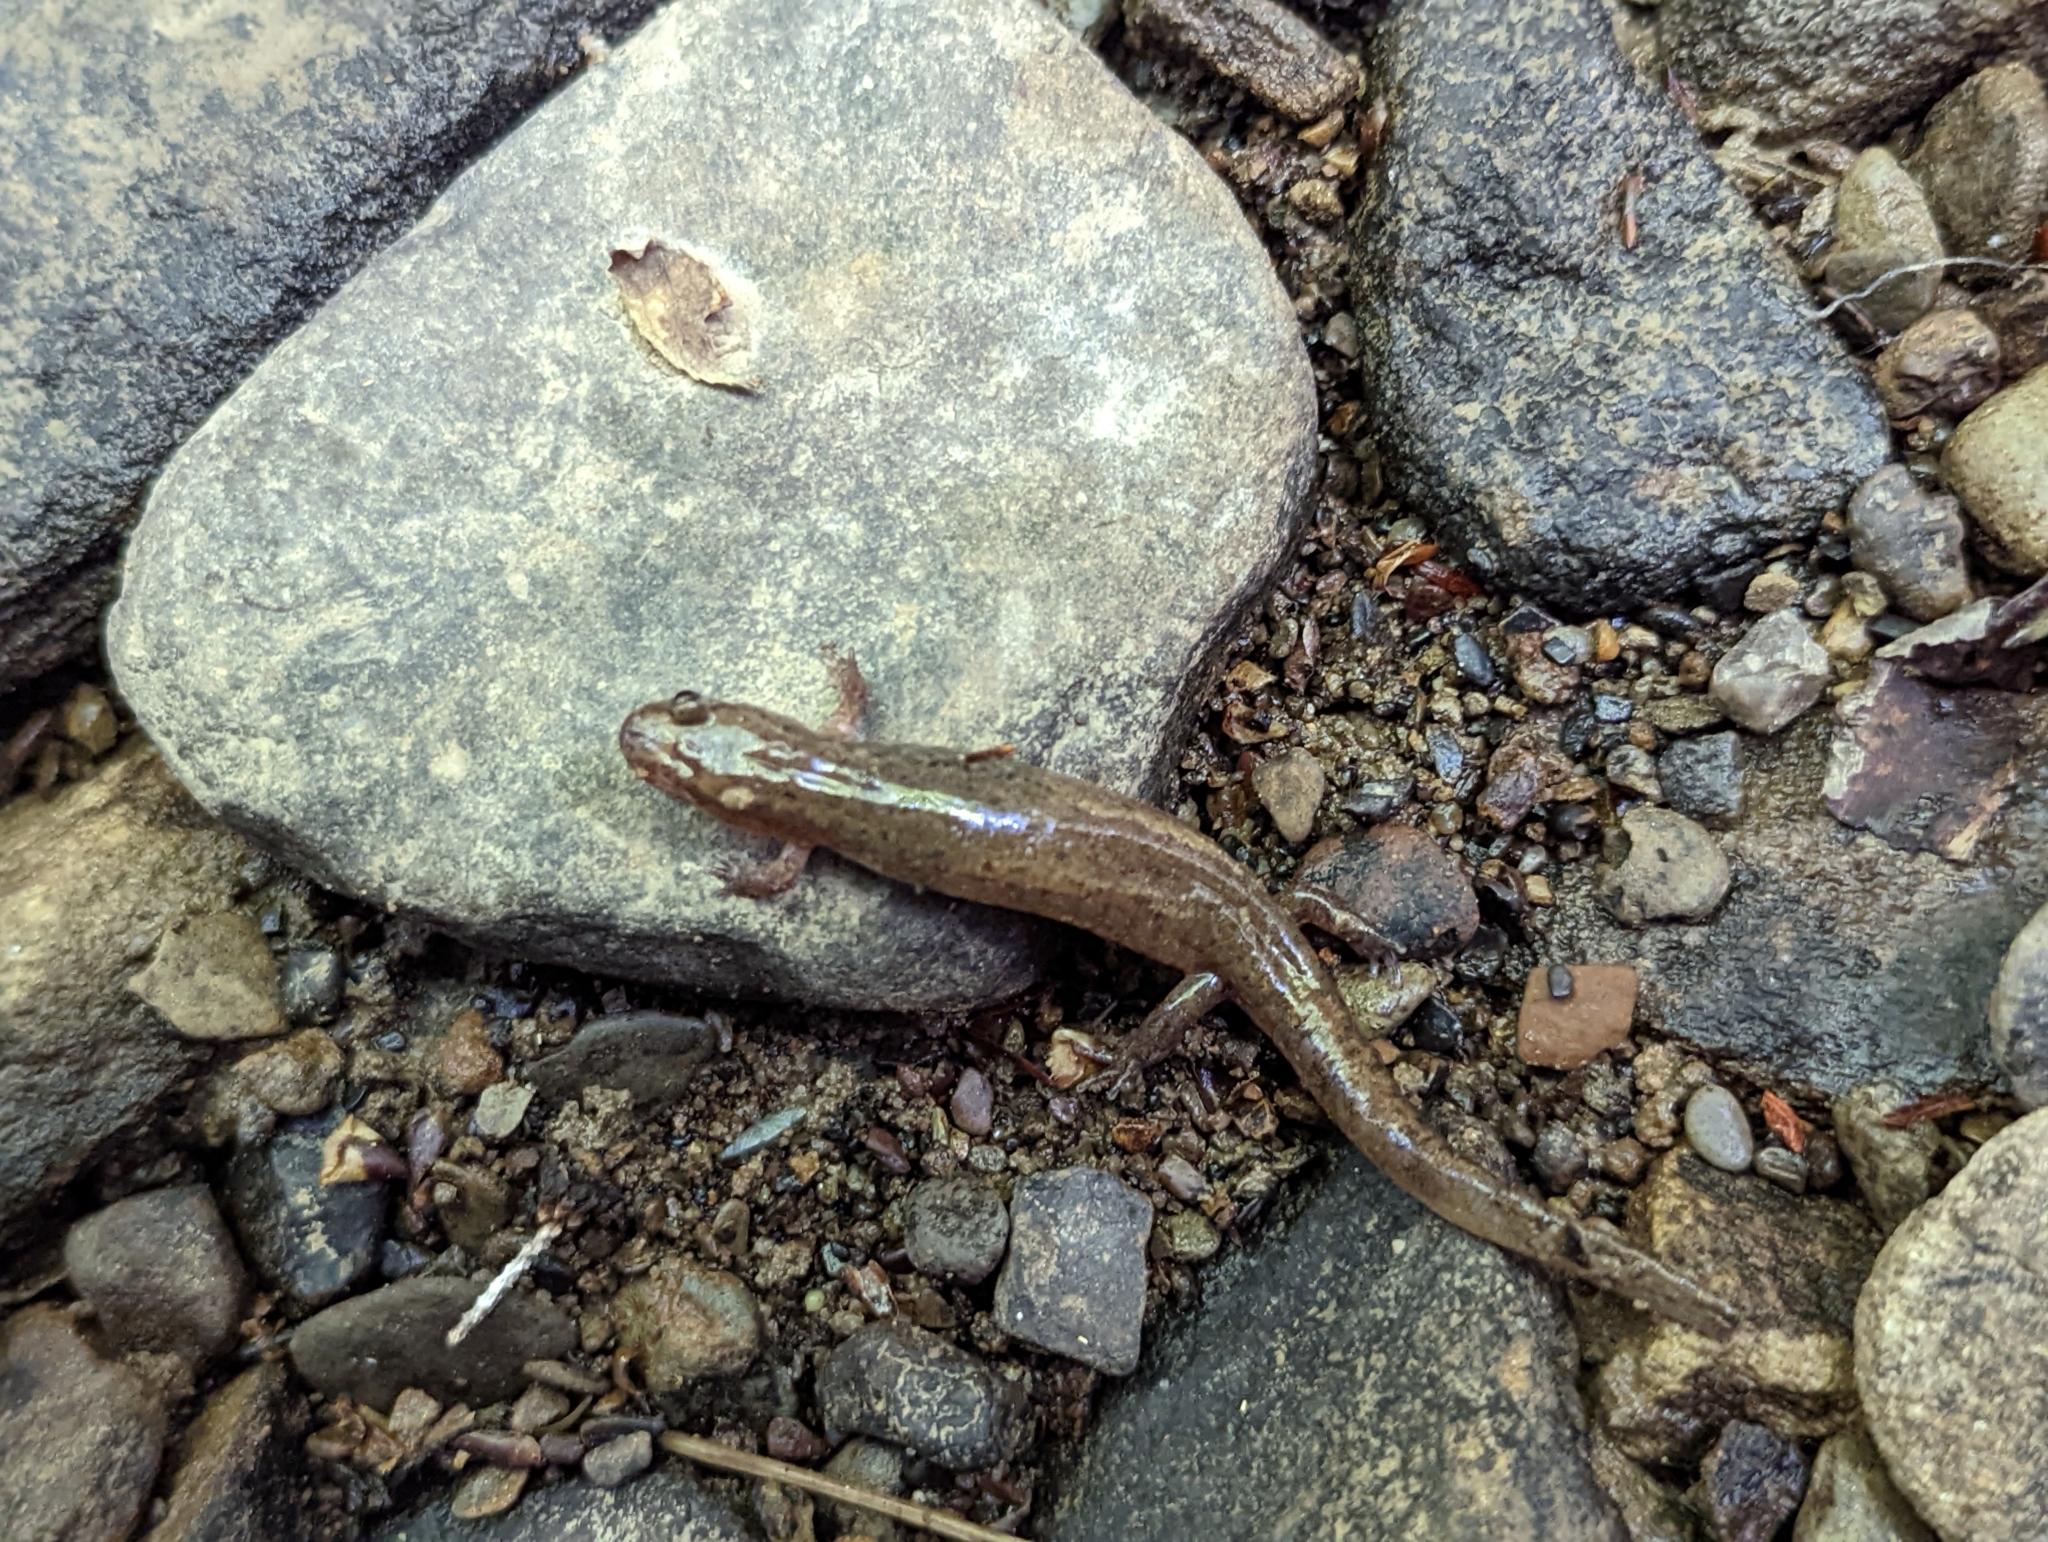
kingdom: Animalia
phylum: Chordata
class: Amphibia
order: Caudata
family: Plethodontidae
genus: Desmognathus
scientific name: Desmognathus fuscus
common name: Northern dusky salamander
